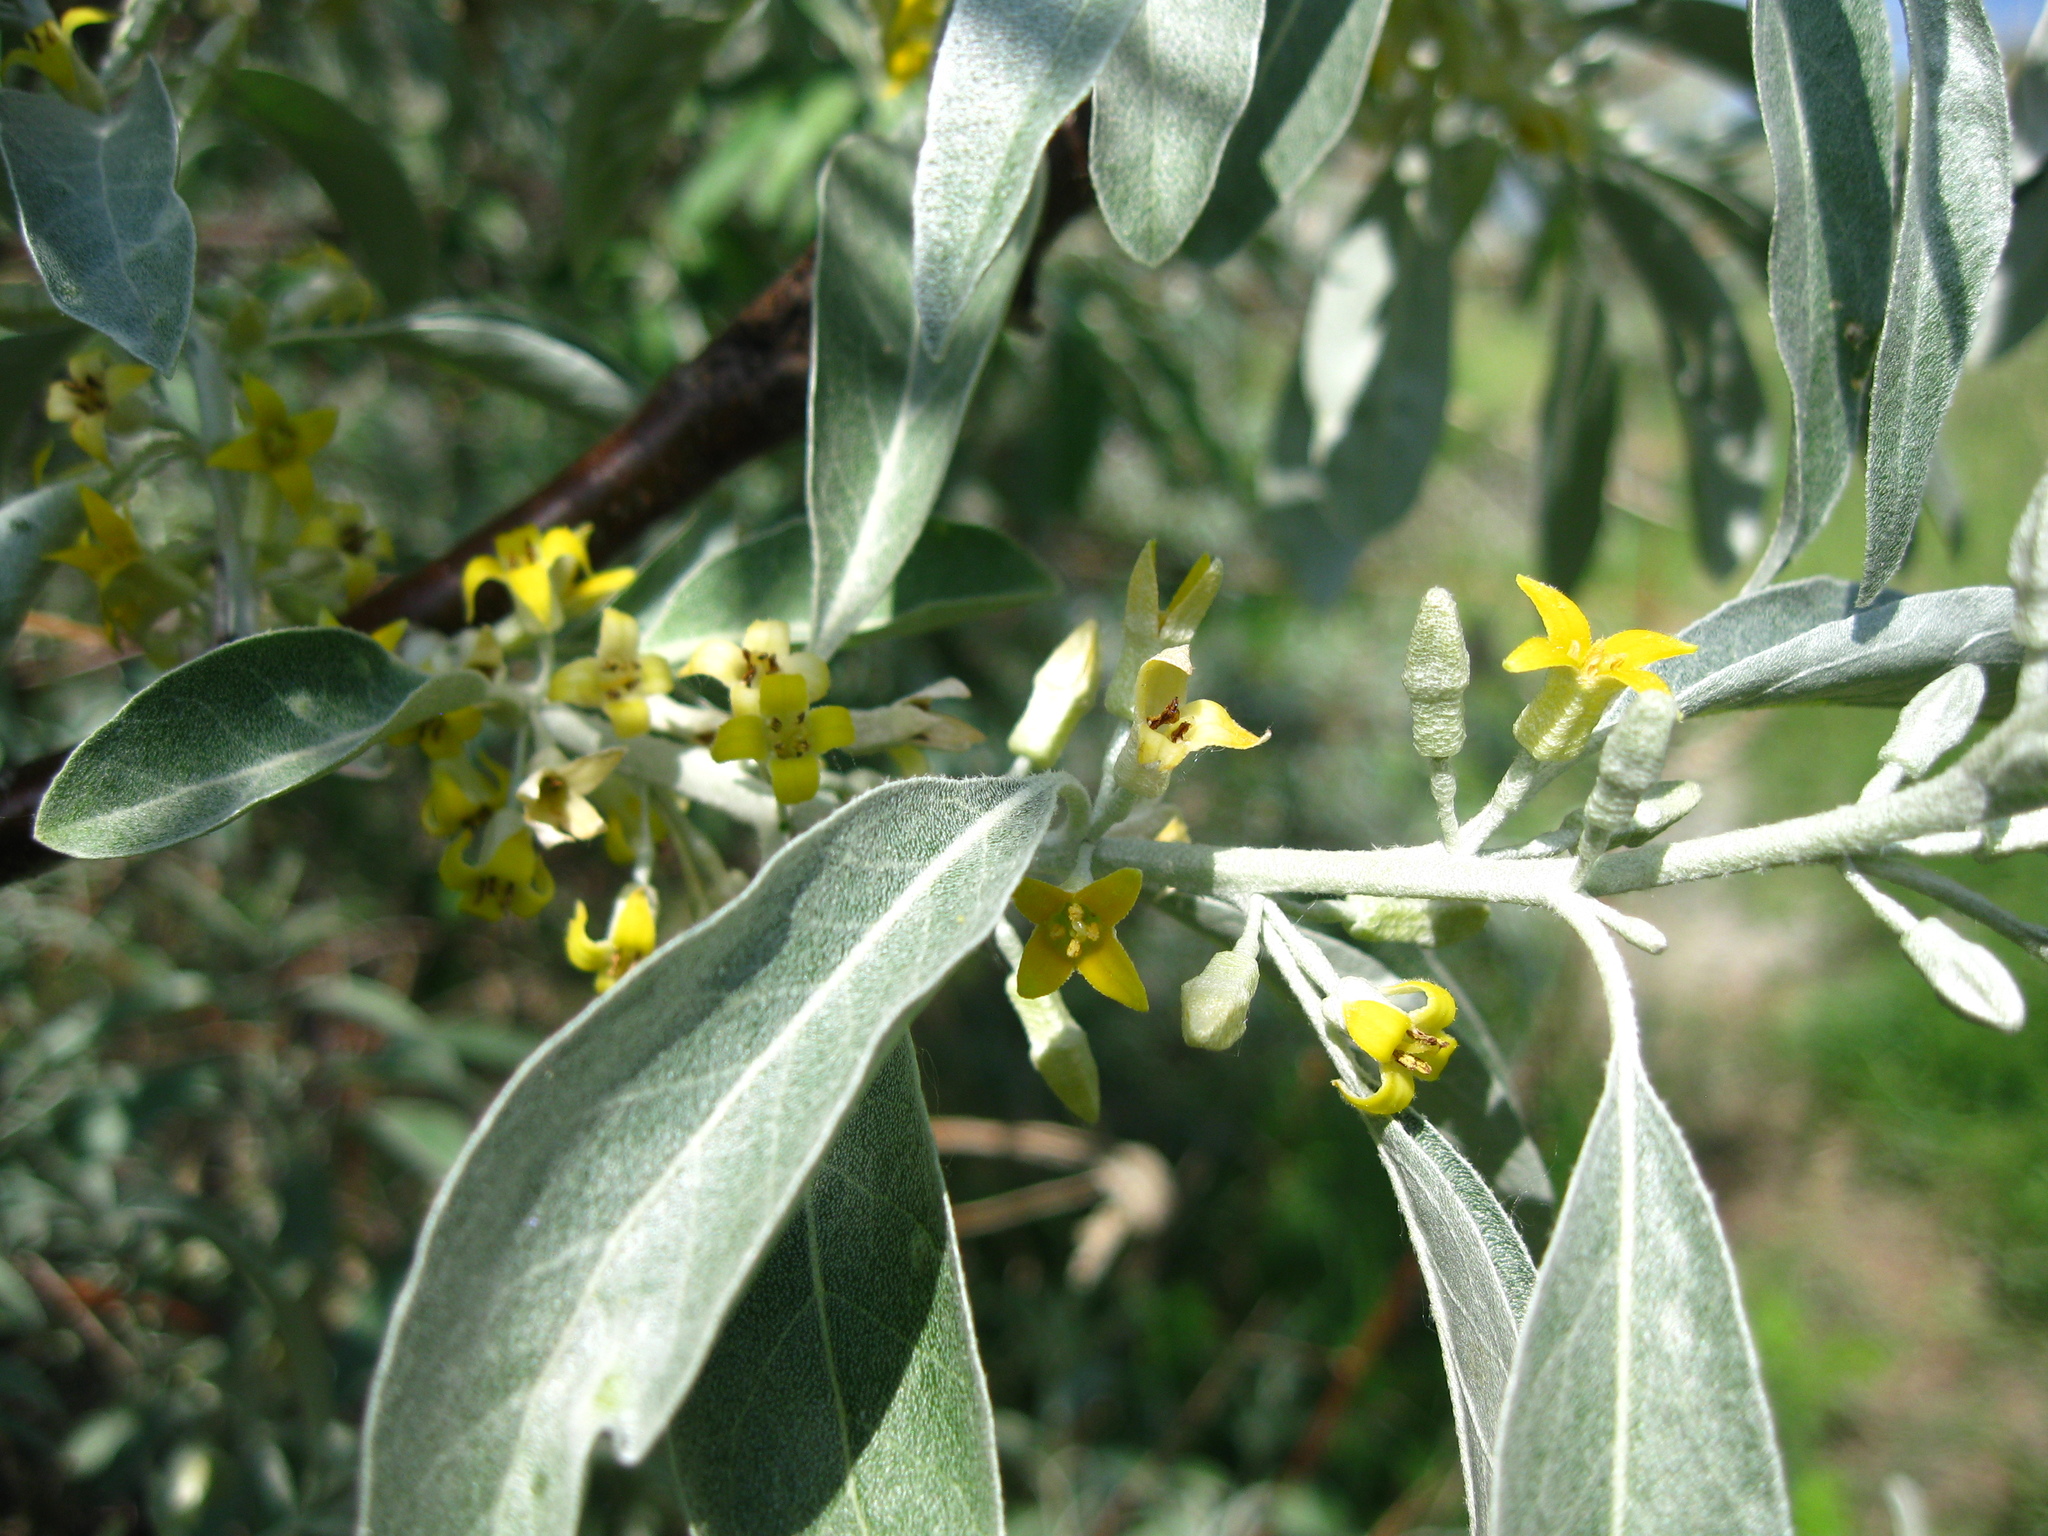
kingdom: Plantae
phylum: Tracheophyta
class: Magnoliopsida
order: Rosales
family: Elaeagnaceae
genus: Elaeagnus
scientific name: Elaeagnus angustifolia
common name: Russian olive
